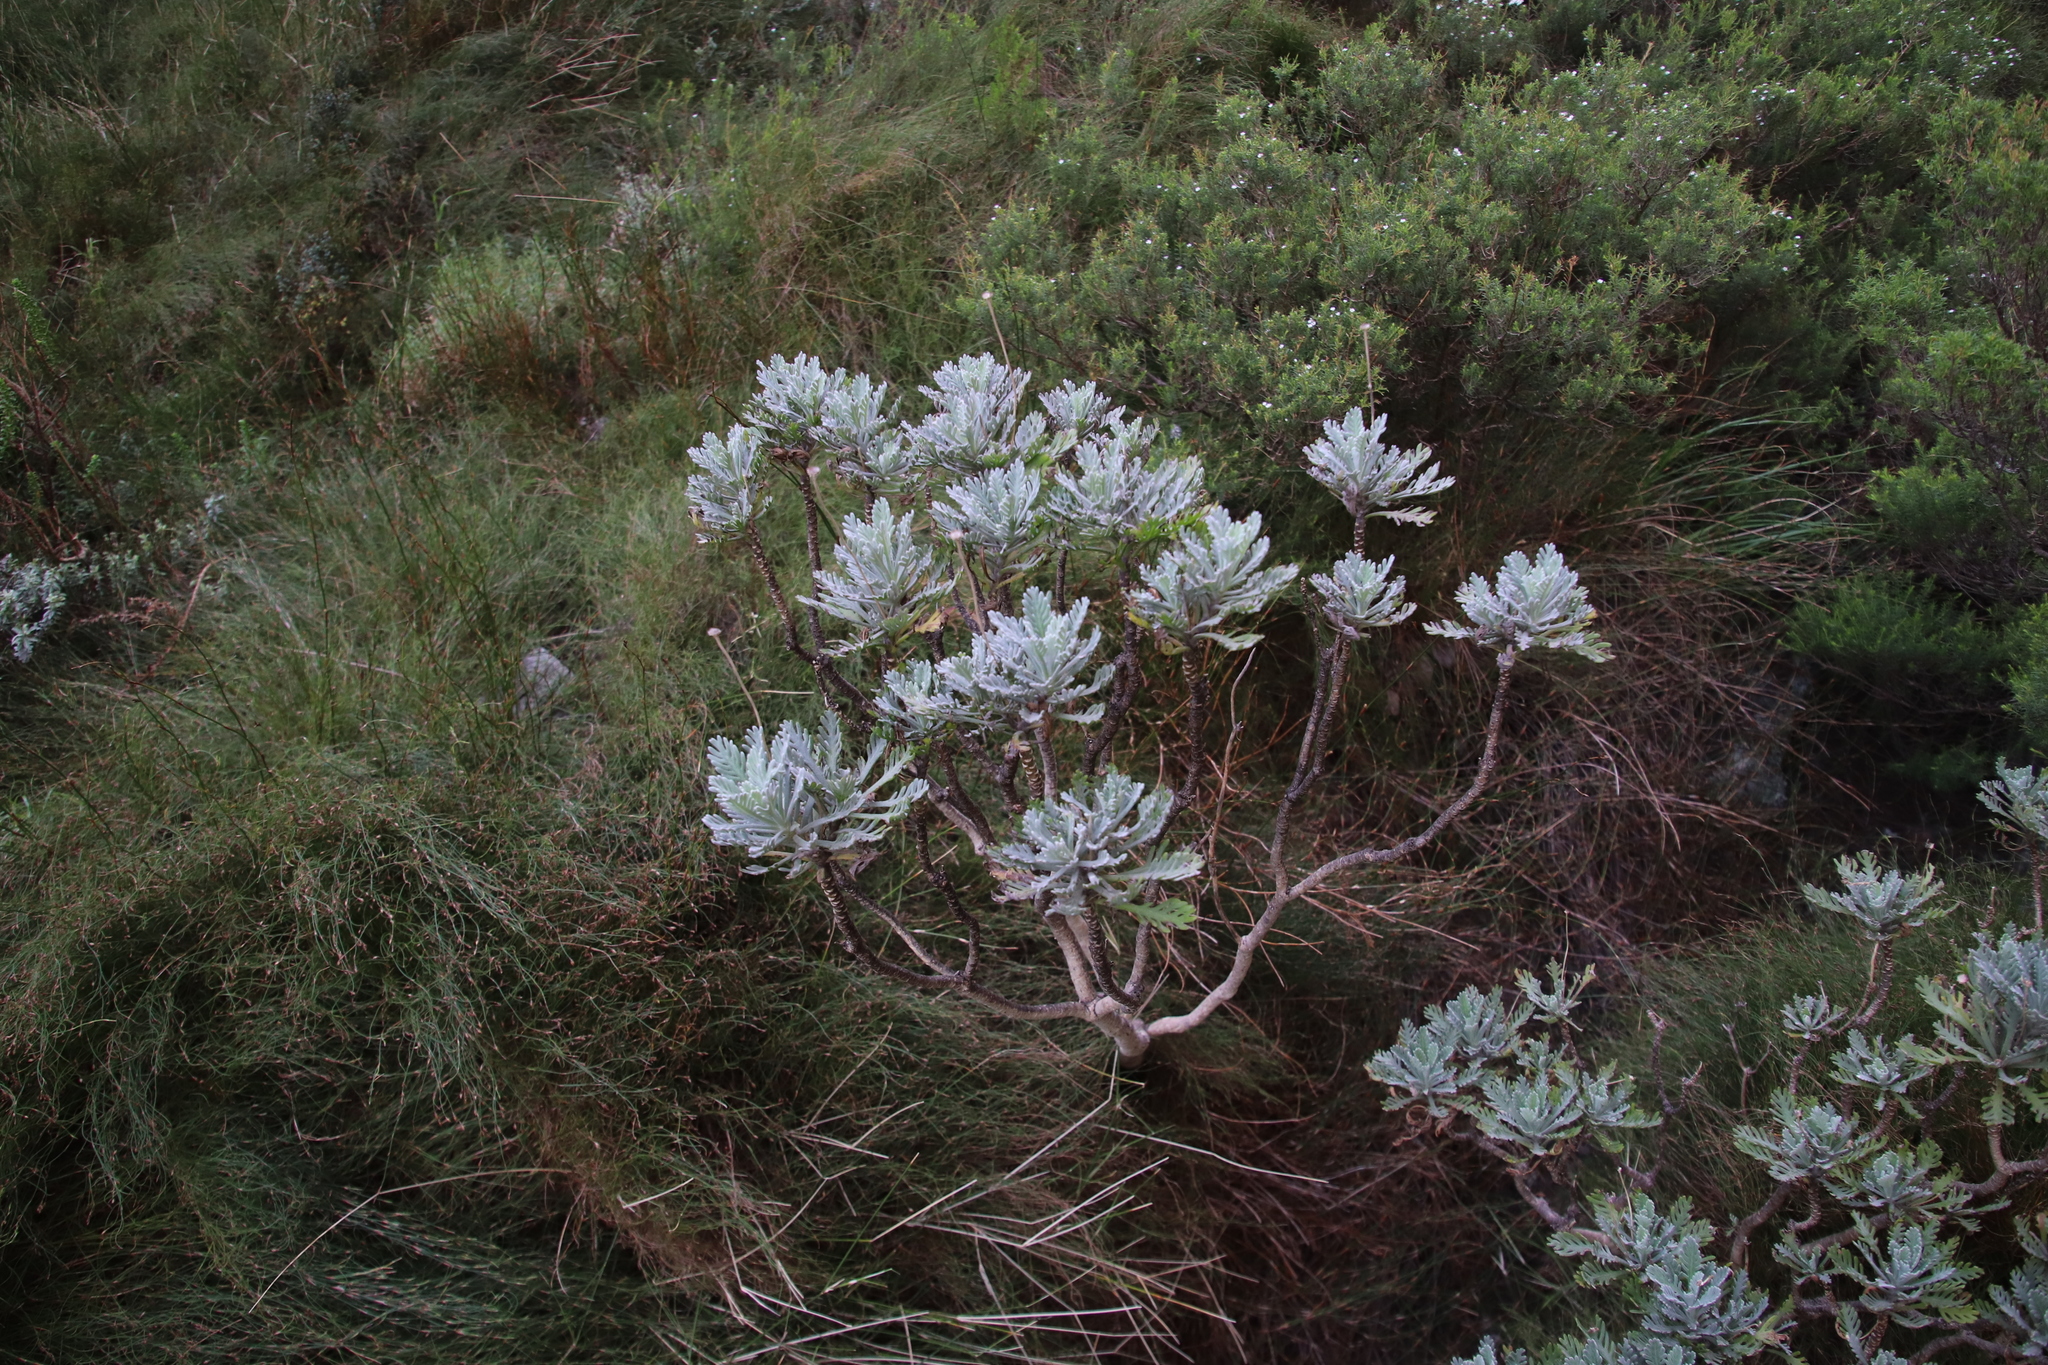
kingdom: Plantae
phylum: Tracheophyta
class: Magnoliopsida
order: Asterales
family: Asteraceae
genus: Euryops
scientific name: Euryops pectinatus
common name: Gray-leaf euryops
